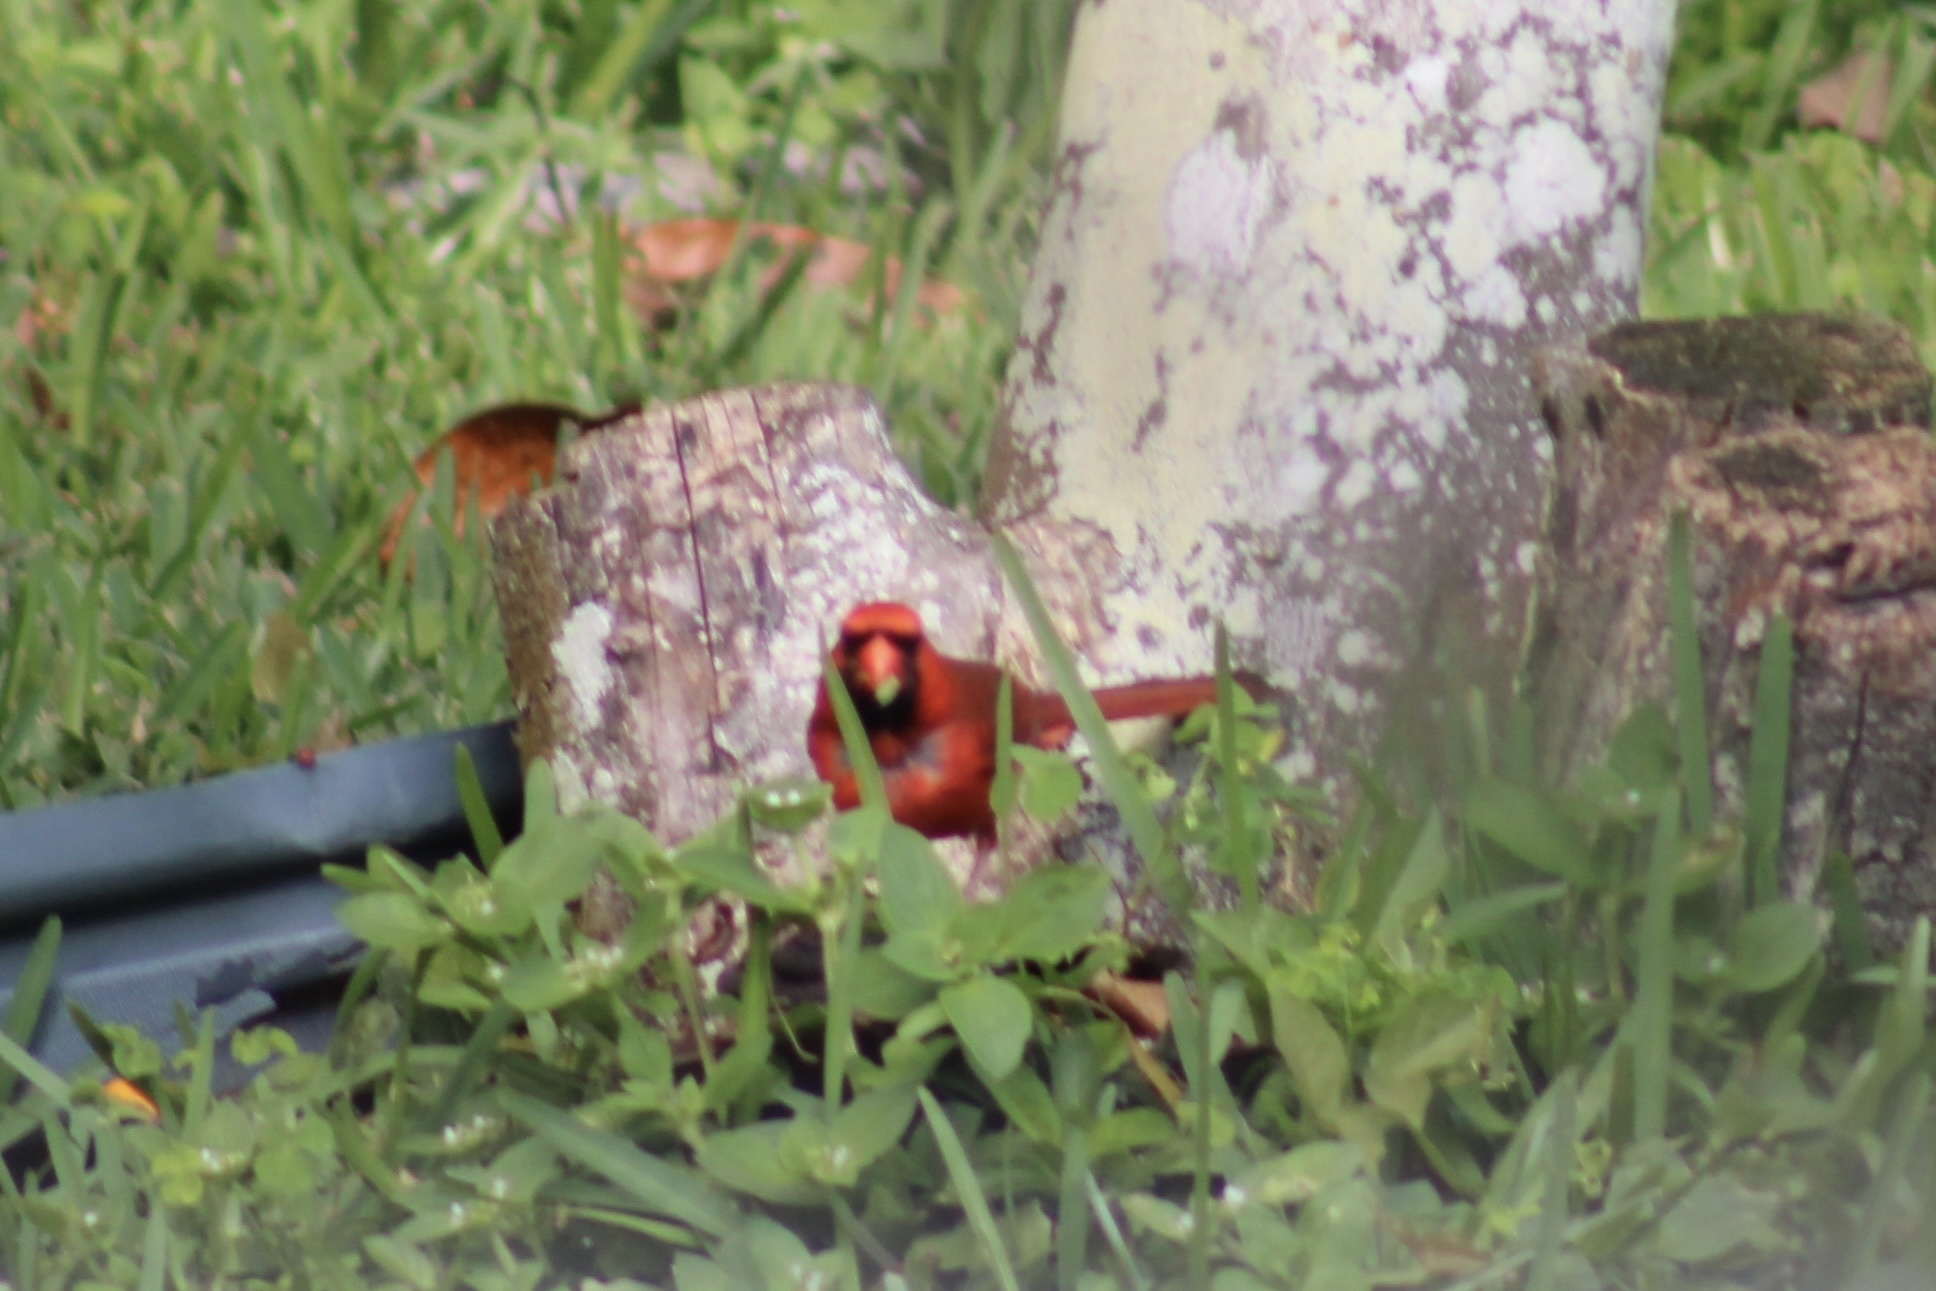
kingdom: Animalia
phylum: Chordata
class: Aves
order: Passeriformes
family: Cardinalidae
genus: Cardinalis
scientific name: Cardinalis cardinalis
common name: Northern cardinal
